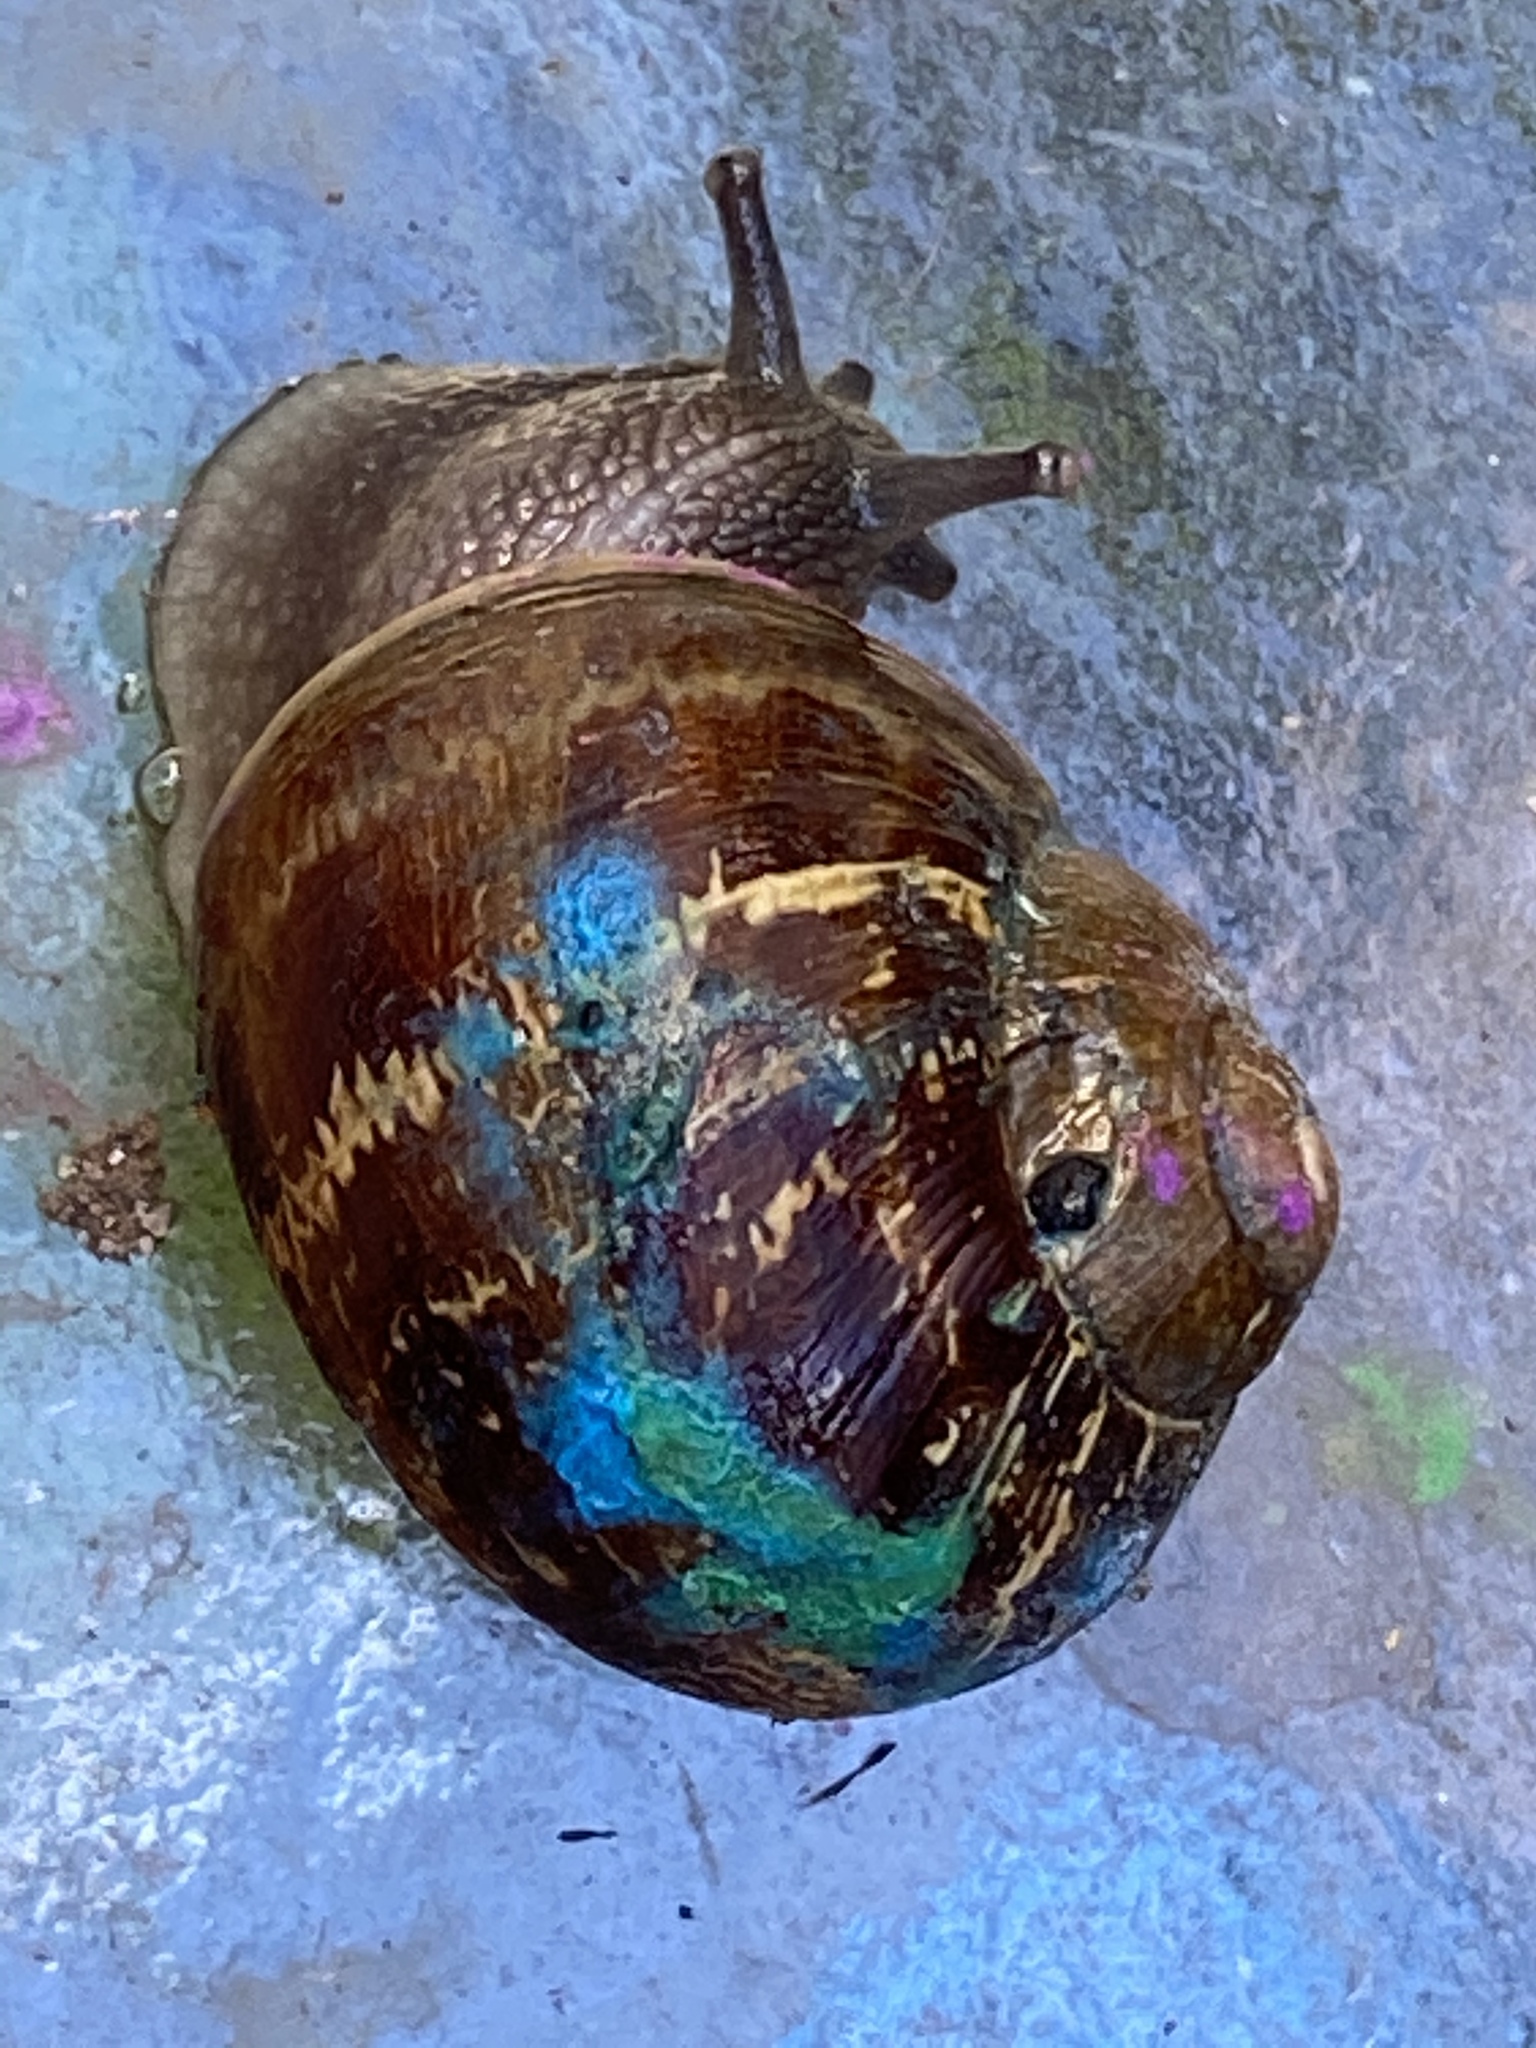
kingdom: Animalia
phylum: Mollusca
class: Gastropoda
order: Stylommatophora
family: Helicidae
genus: Cornu
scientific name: Cornu aspersum
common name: Brown garden snail
